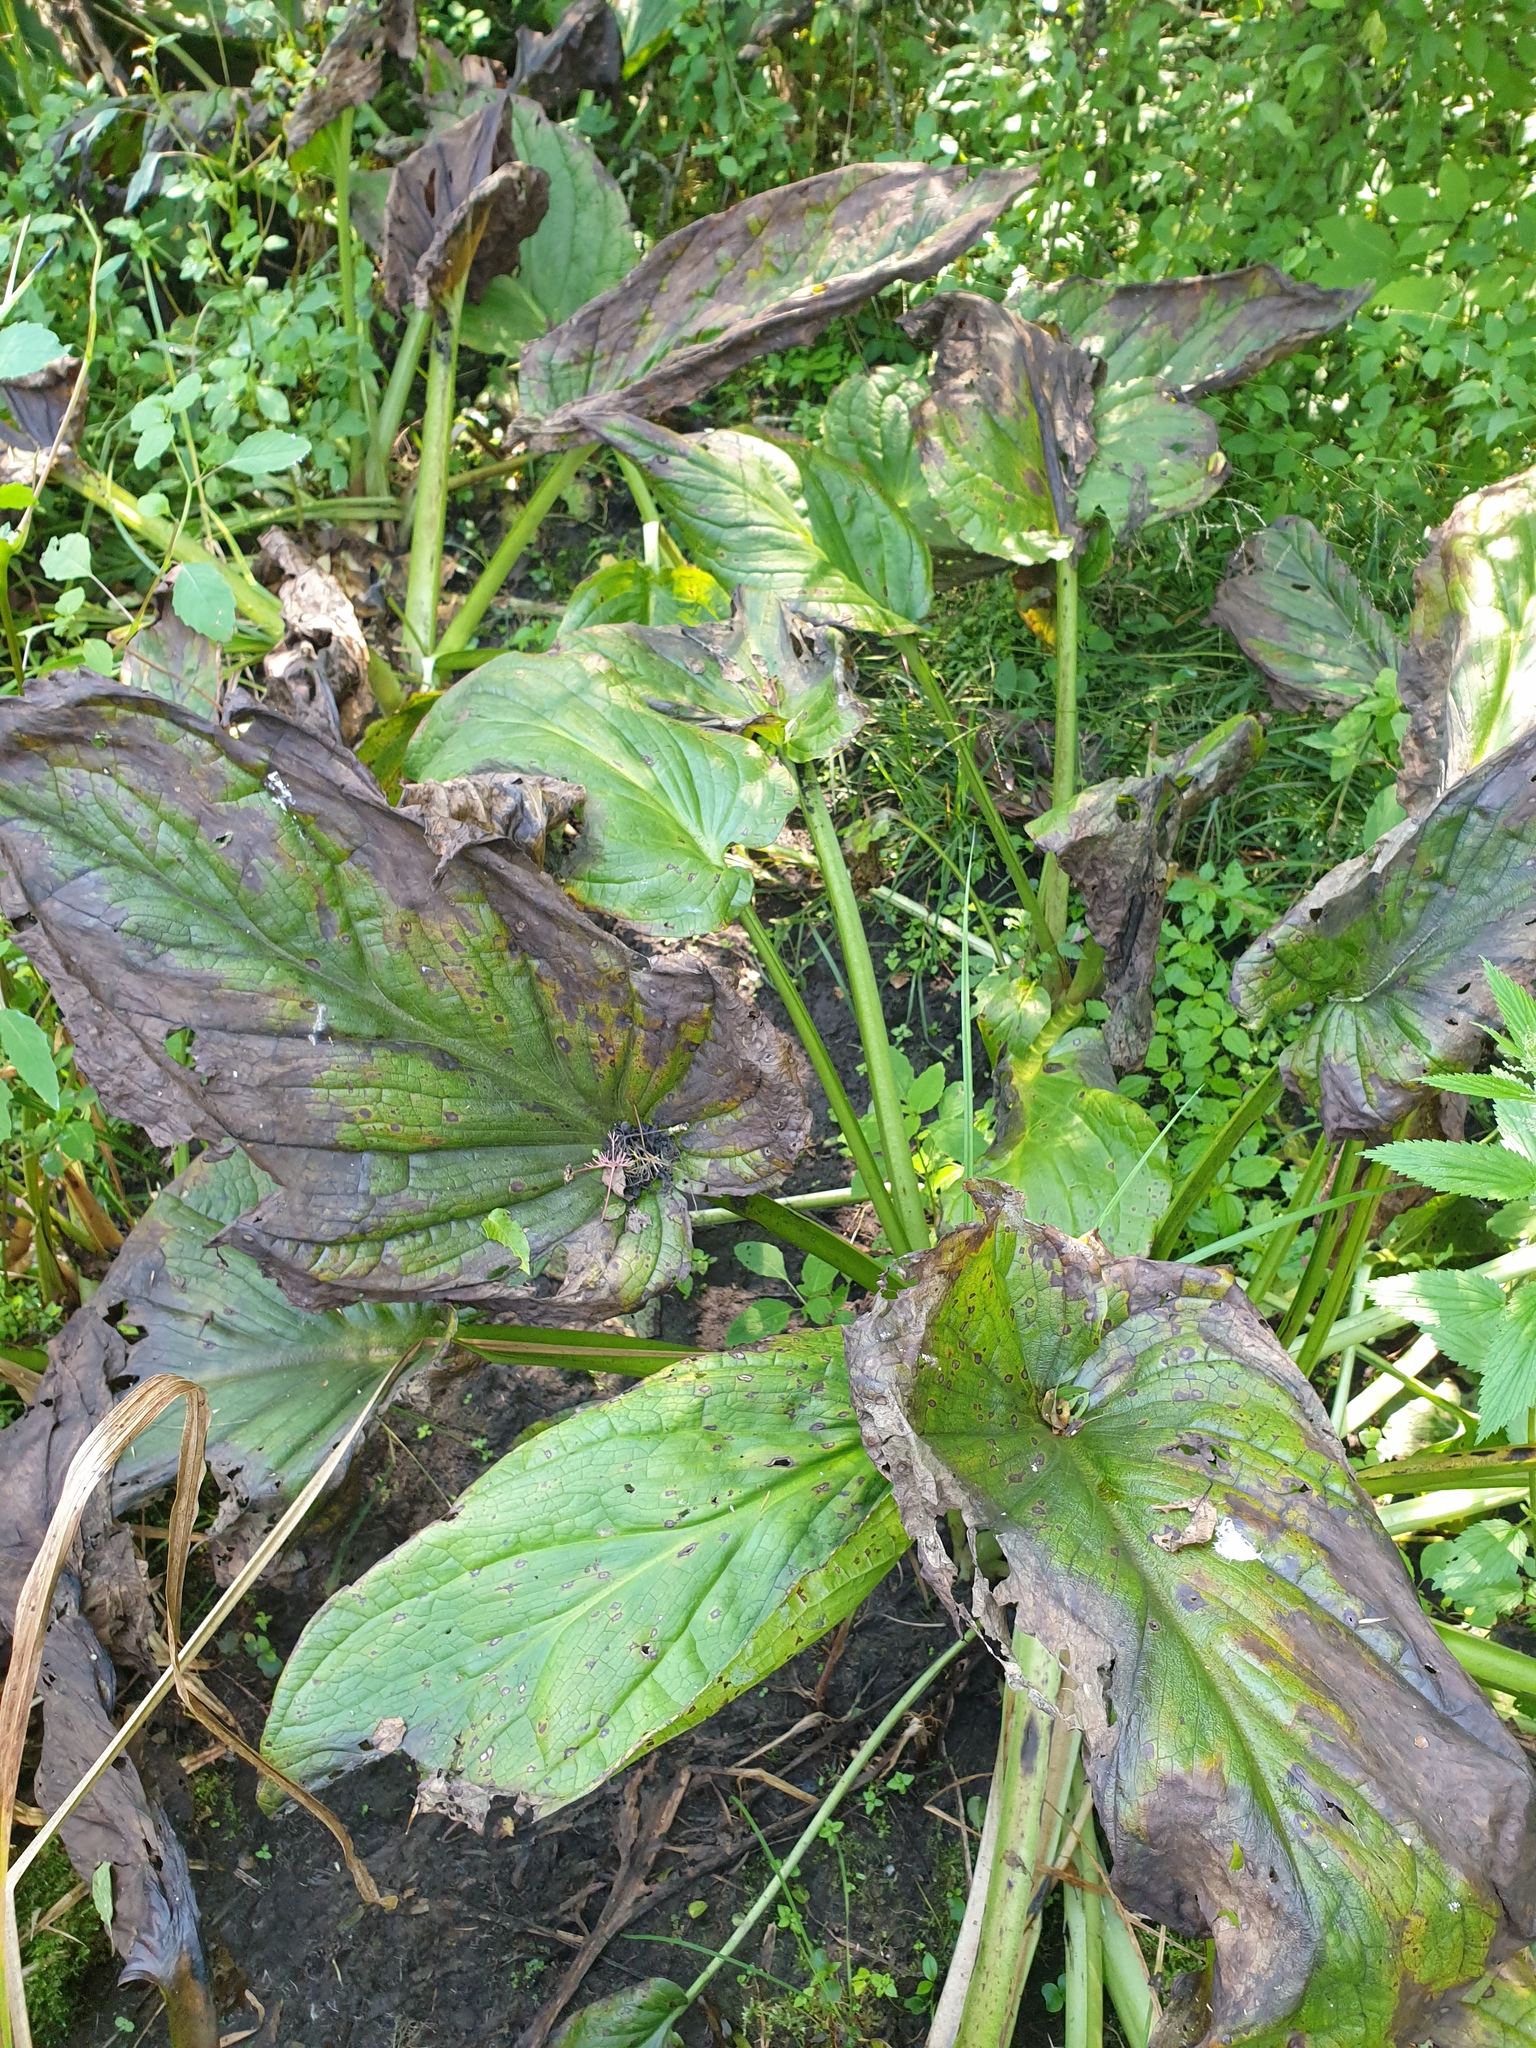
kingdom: Plantae
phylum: Tracheophyta
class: Liliopsida
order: Alismatales
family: Araceae
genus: Symplocarpus
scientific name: Symplocarpus foetidus
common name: Eastern skunk cabbage
